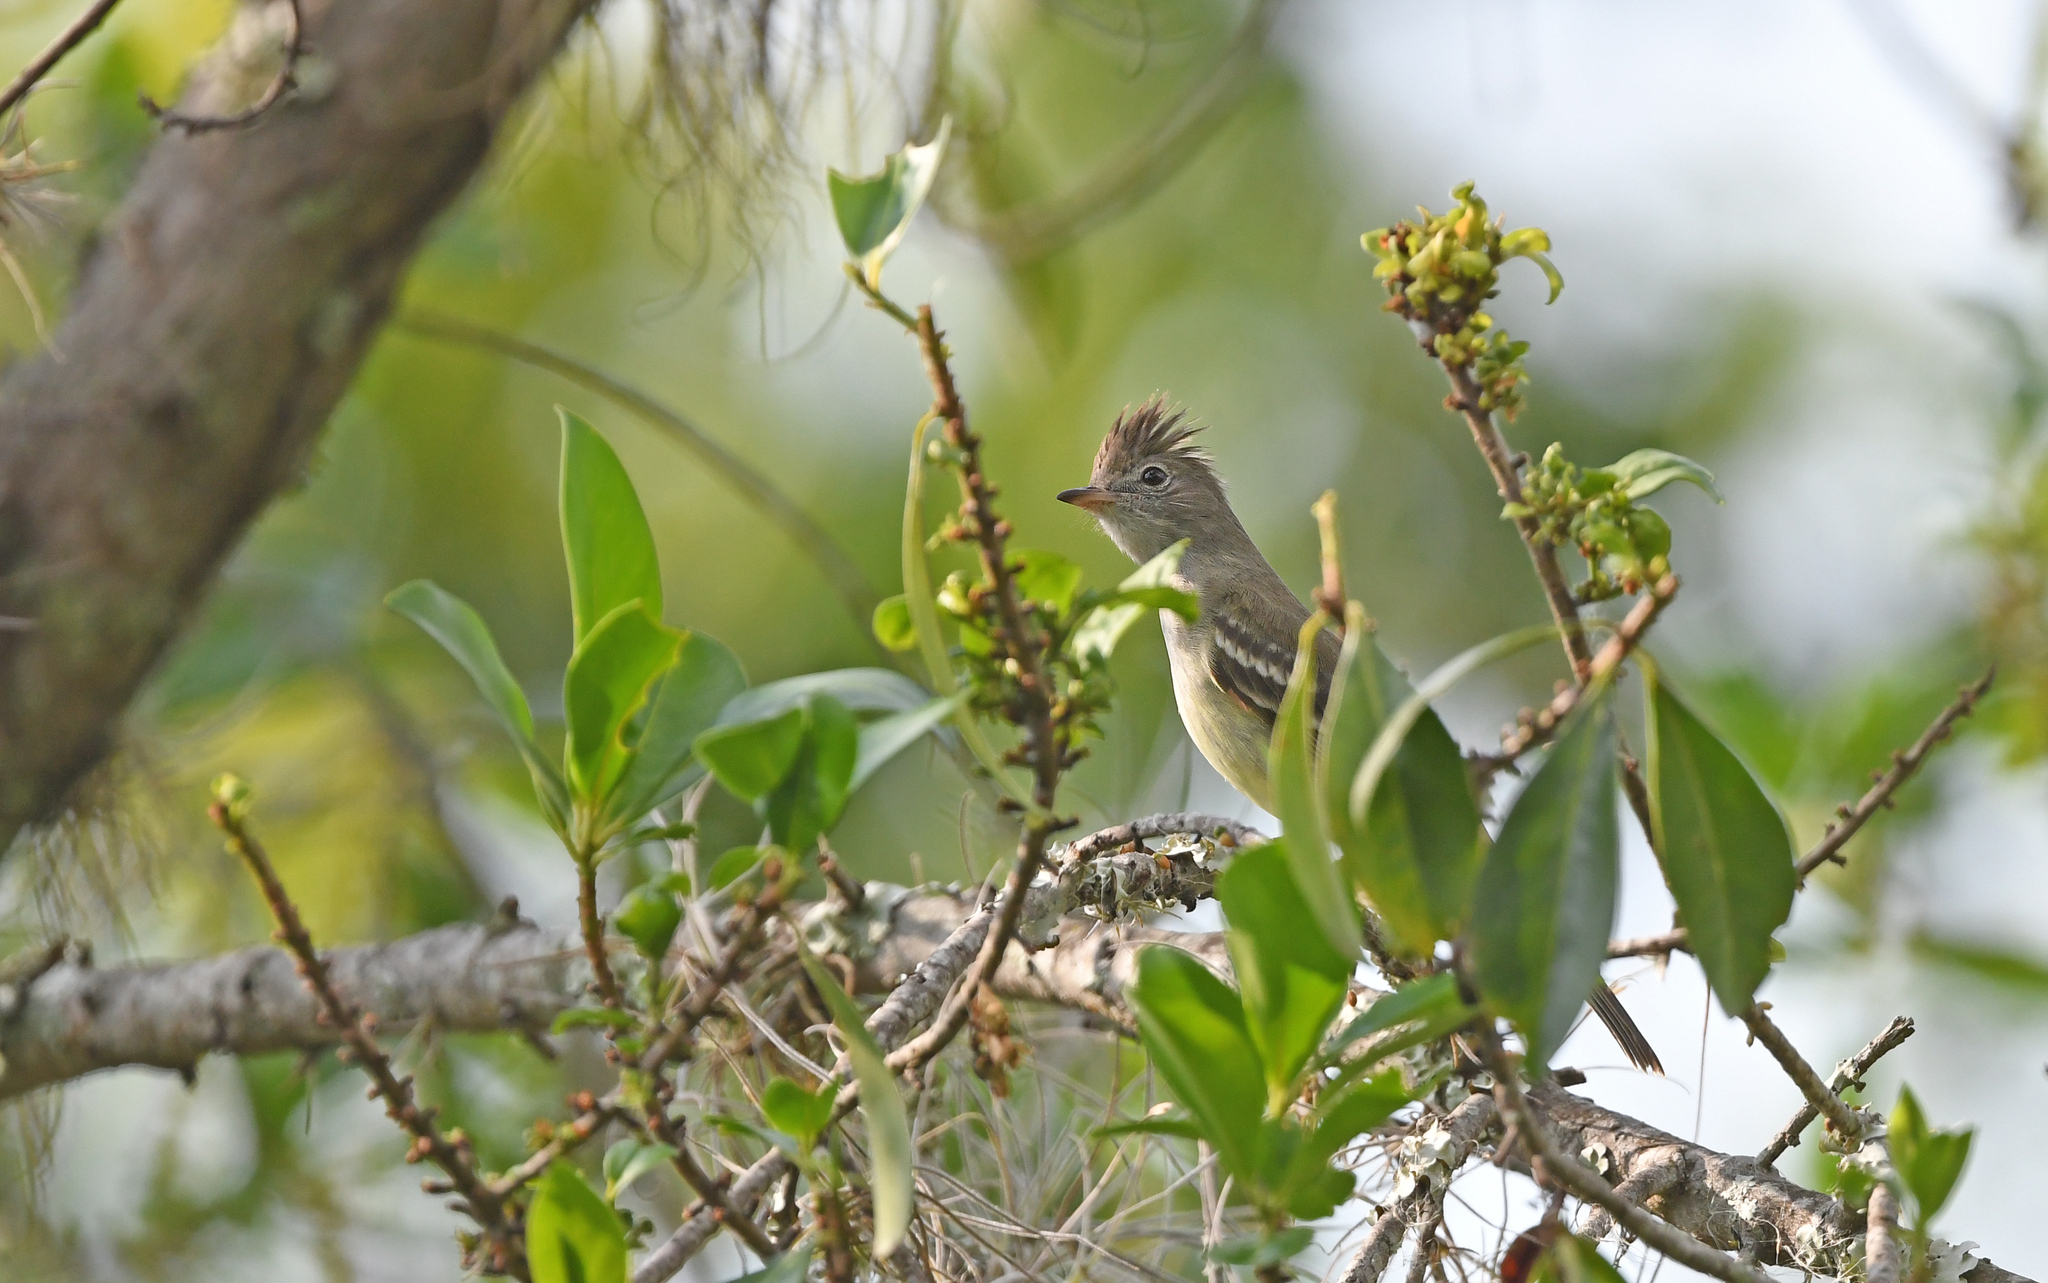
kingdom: Animalia
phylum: Chordata
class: Aves
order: Passeriformes
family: Tyrannidae
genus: Elaenia
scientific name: Elaenia flavogaster
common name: Yellow-bellied elaenia
